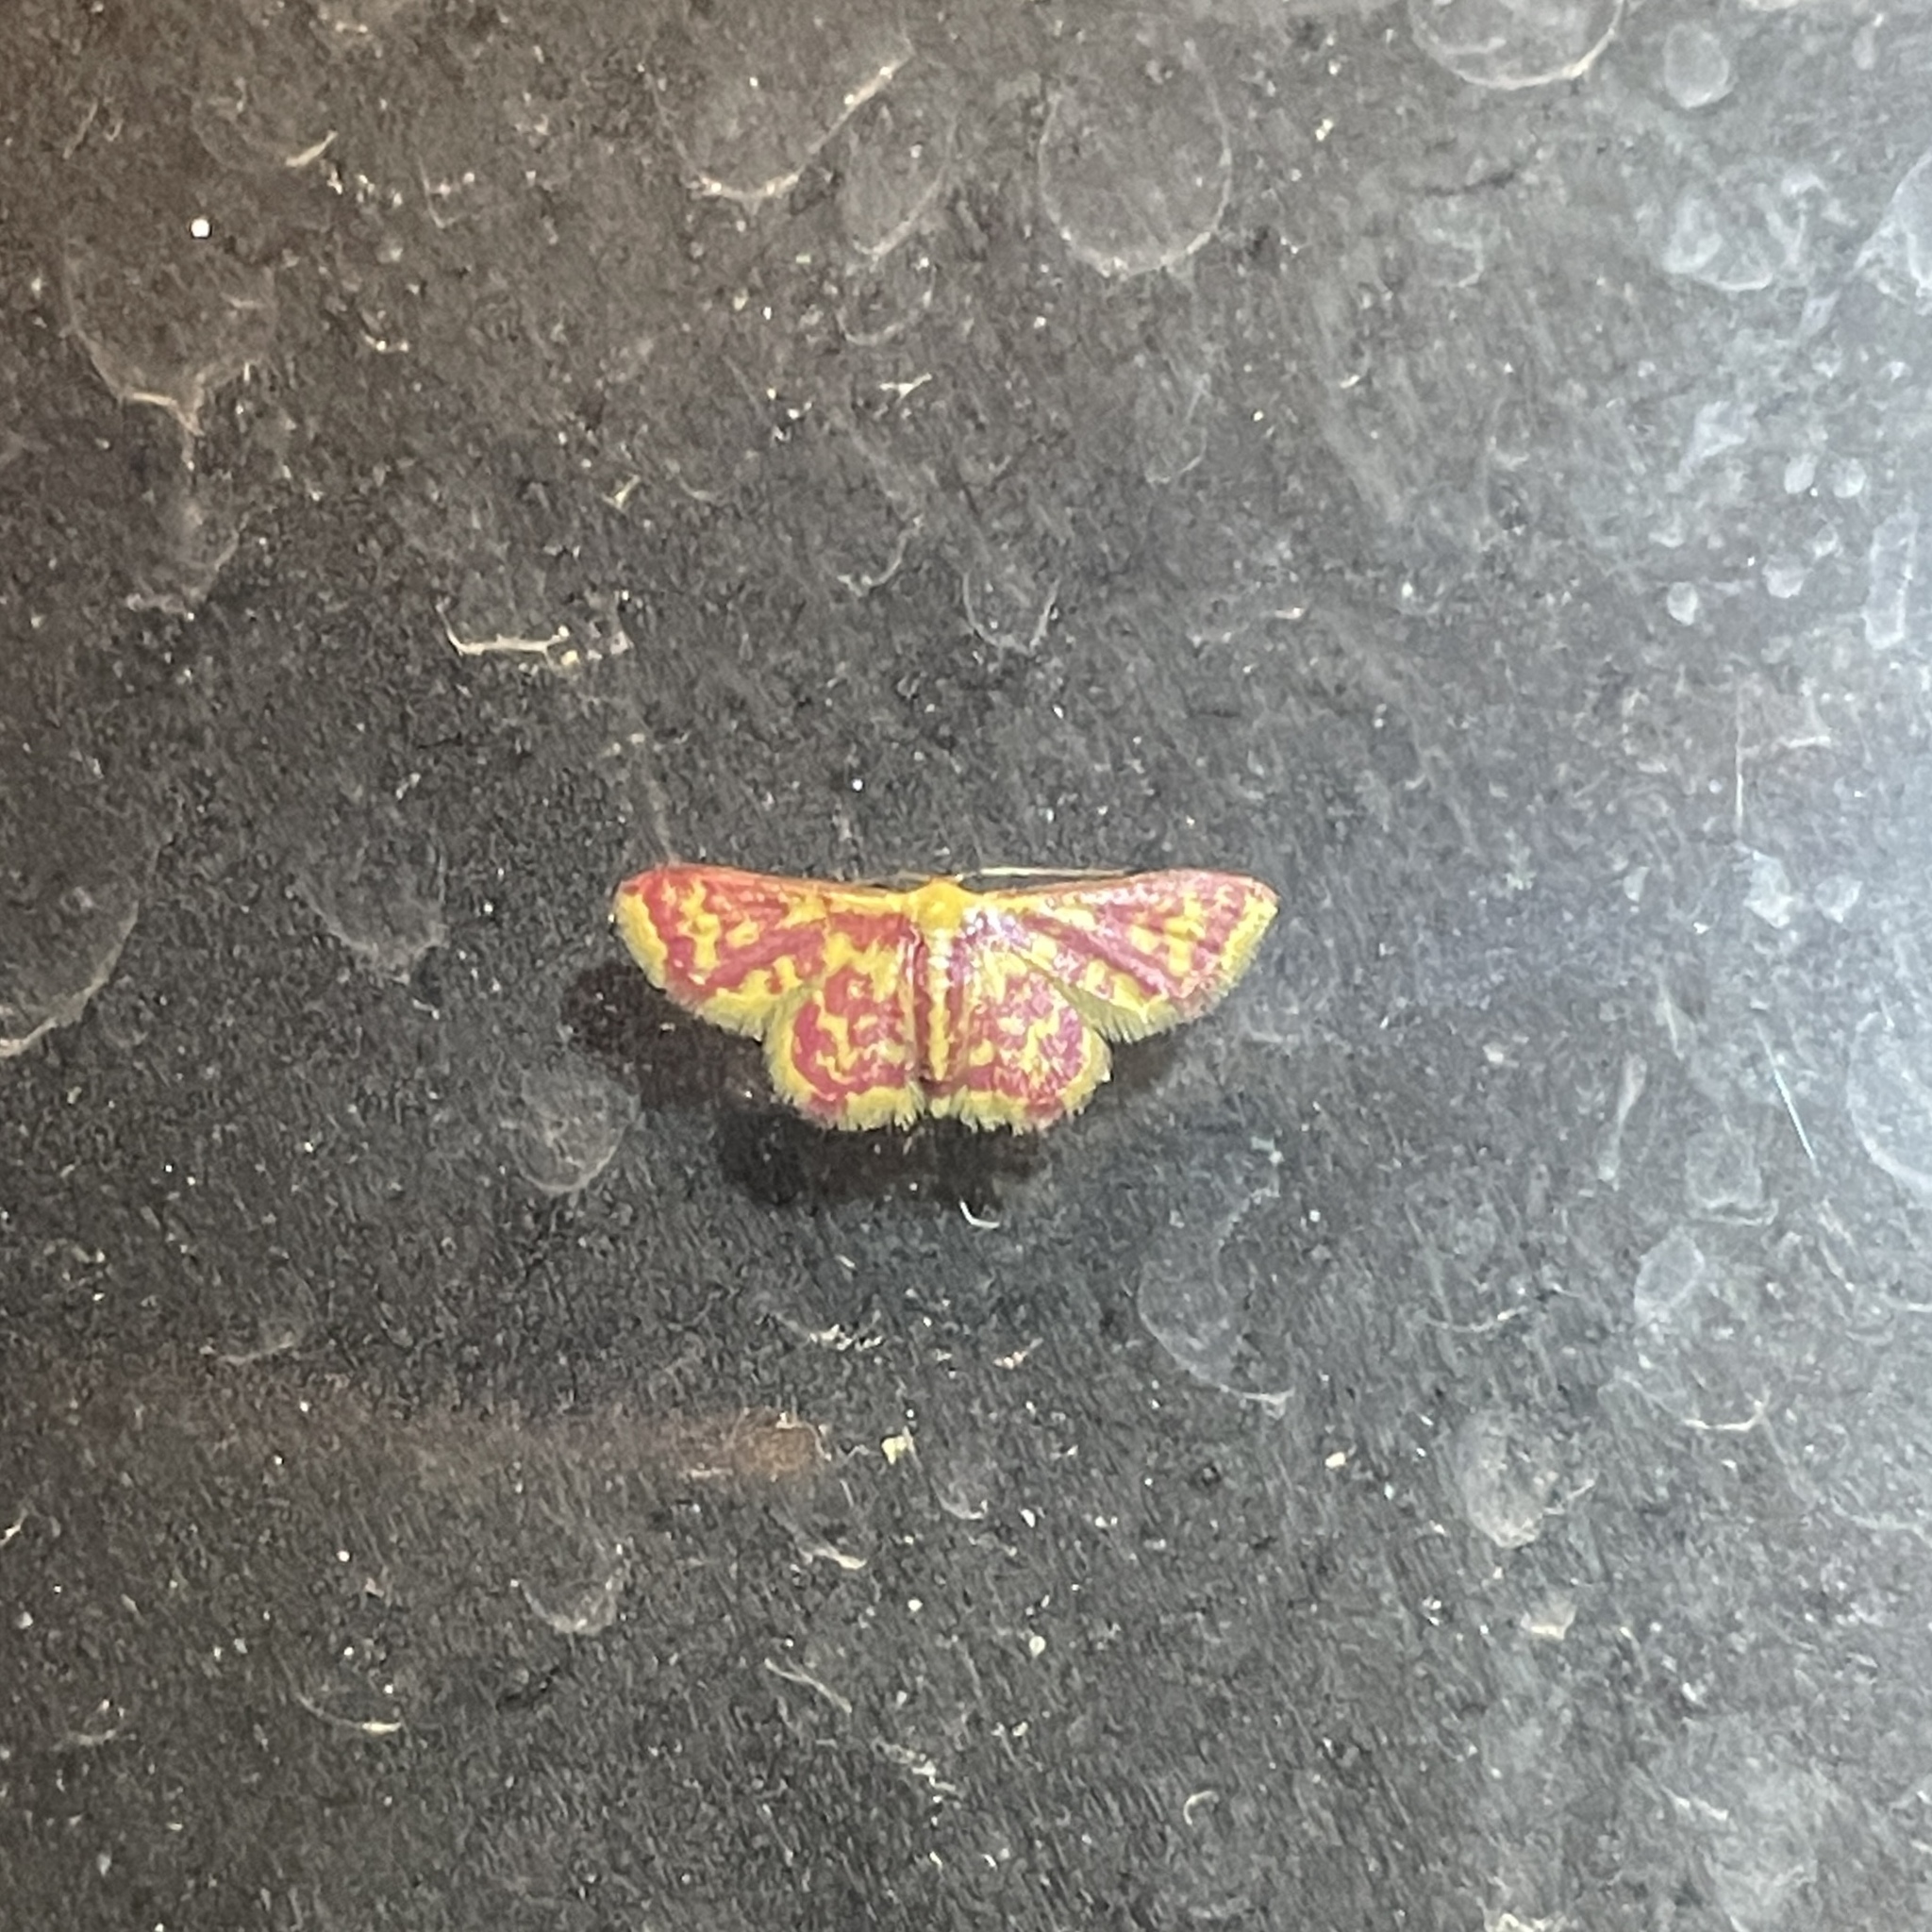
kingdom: Animalia
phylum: Arthropoda
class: Insecta
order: Lepidoptera
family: Geometridae
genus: Tricentrogyna
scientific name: Tricentrogyna colligata
